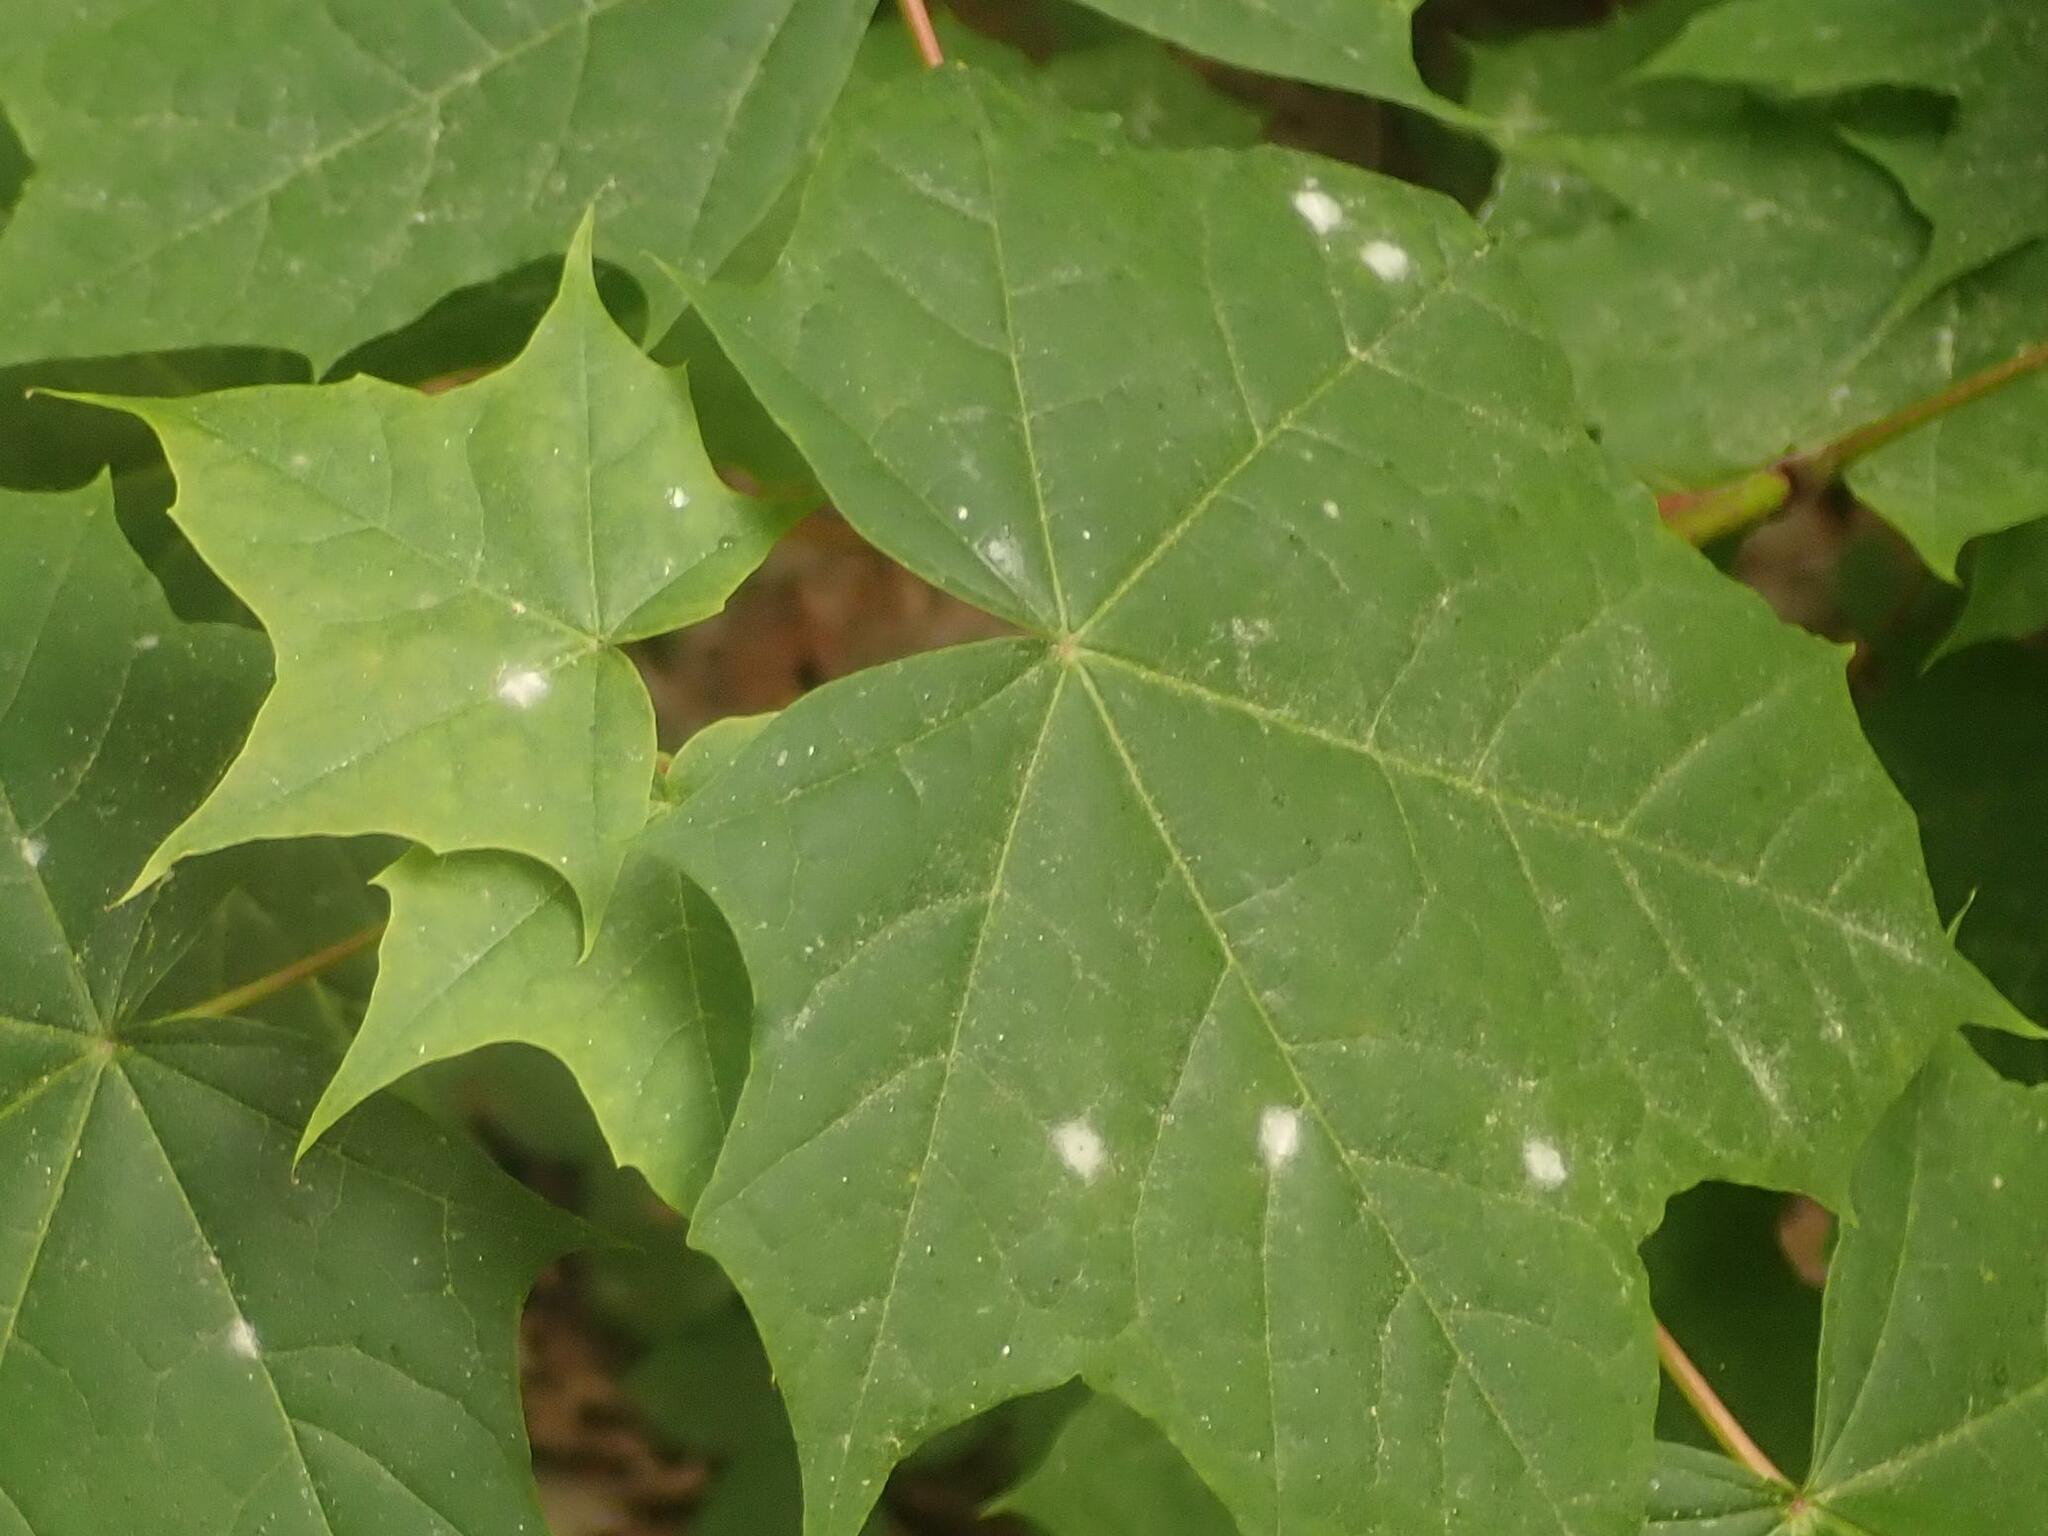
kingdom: Fungi
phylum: Ascomycota
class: Leotiomycetes
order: Helotiales
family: Erysiphaceae
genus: Sawadaea
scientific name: Sawadaea tulasnei
